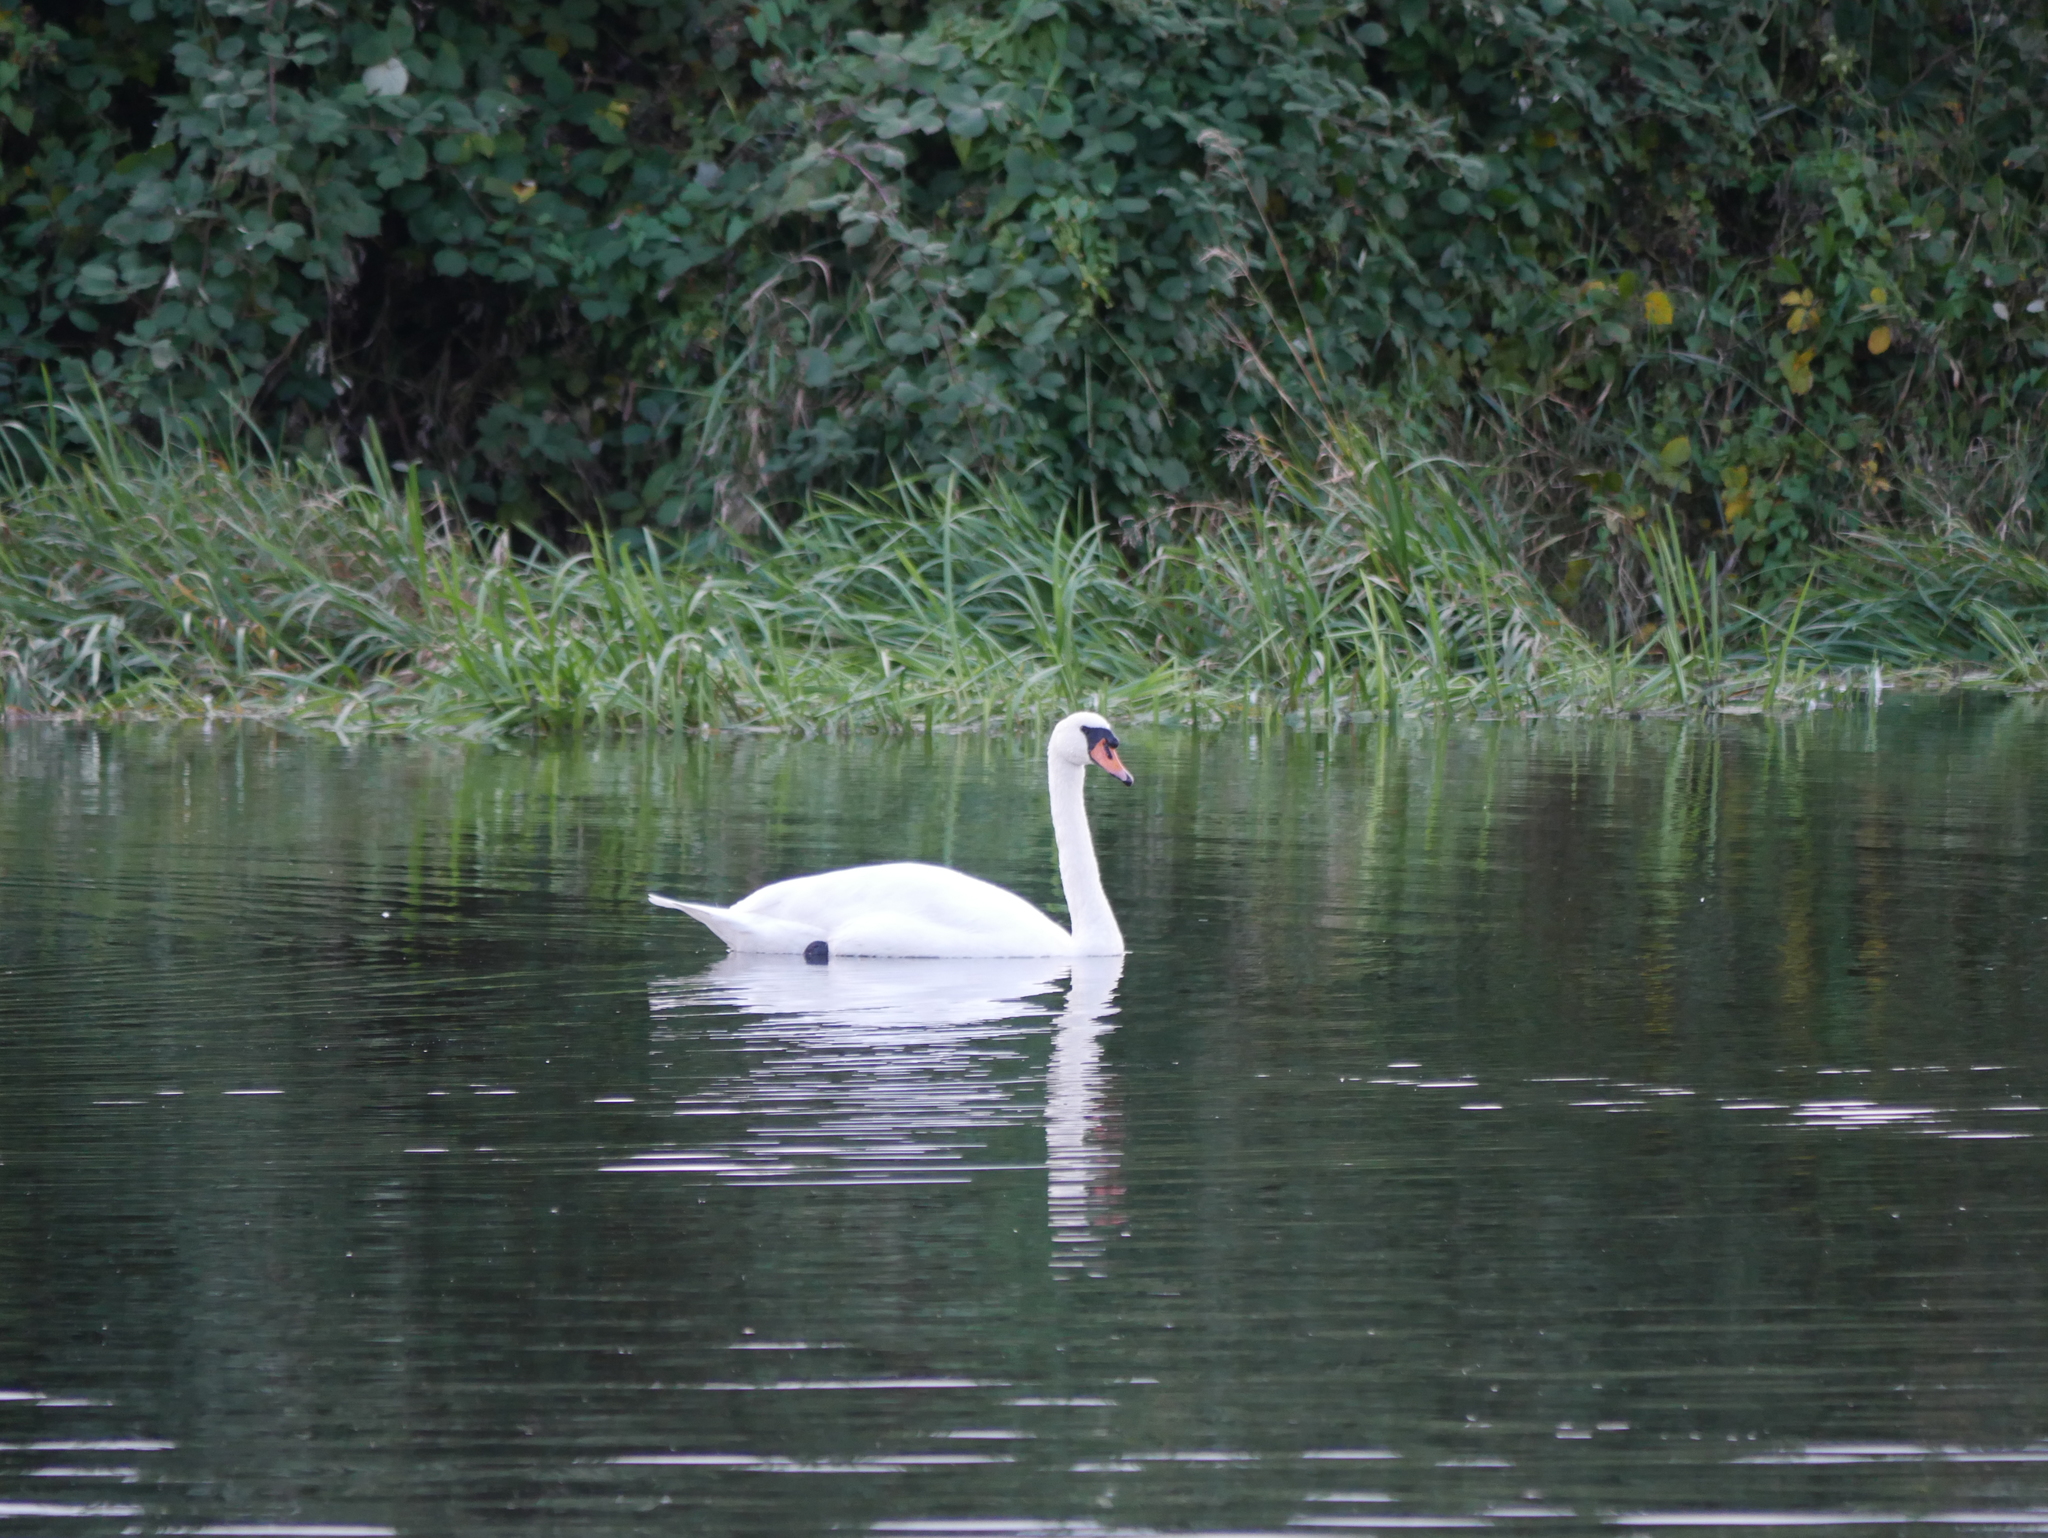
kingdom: Animalia
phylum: Chordata
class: Aves
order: Anseriformes
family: Anatidae
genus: Cygnus
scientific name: Cygnus olor
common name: Mute swan
